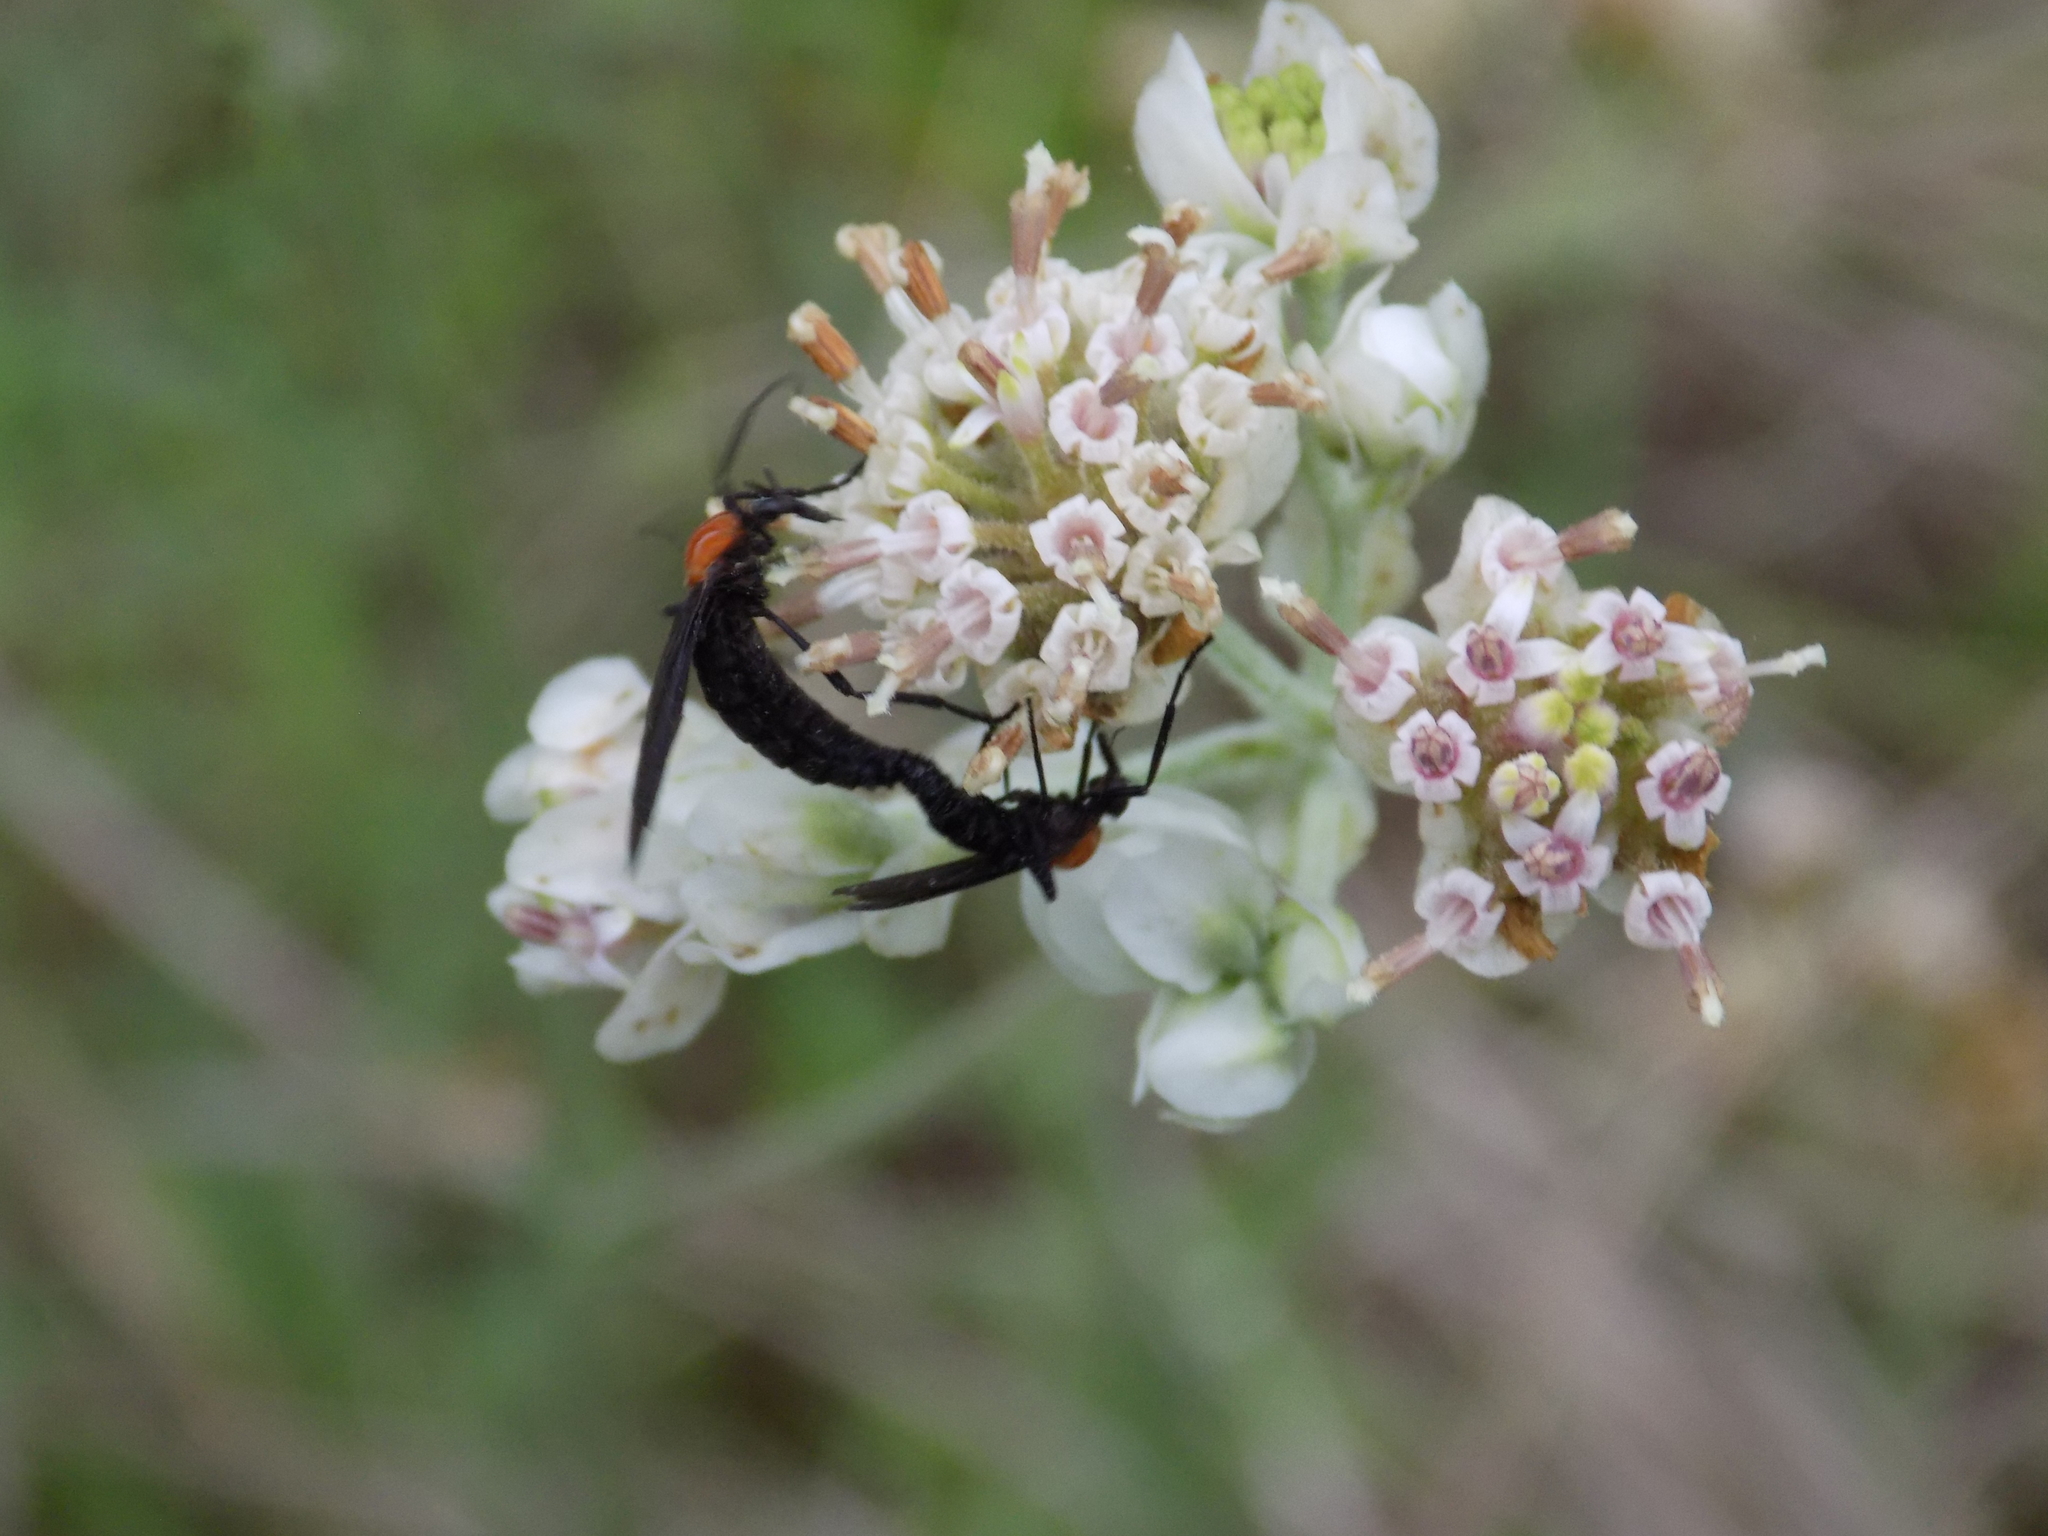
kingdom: Plantae
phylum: Tracheophyta
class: Magnoliopsida
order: Asterales
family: Asteraceae
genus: Hymenopappus
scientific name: Hymenopappus artemisiifolius
